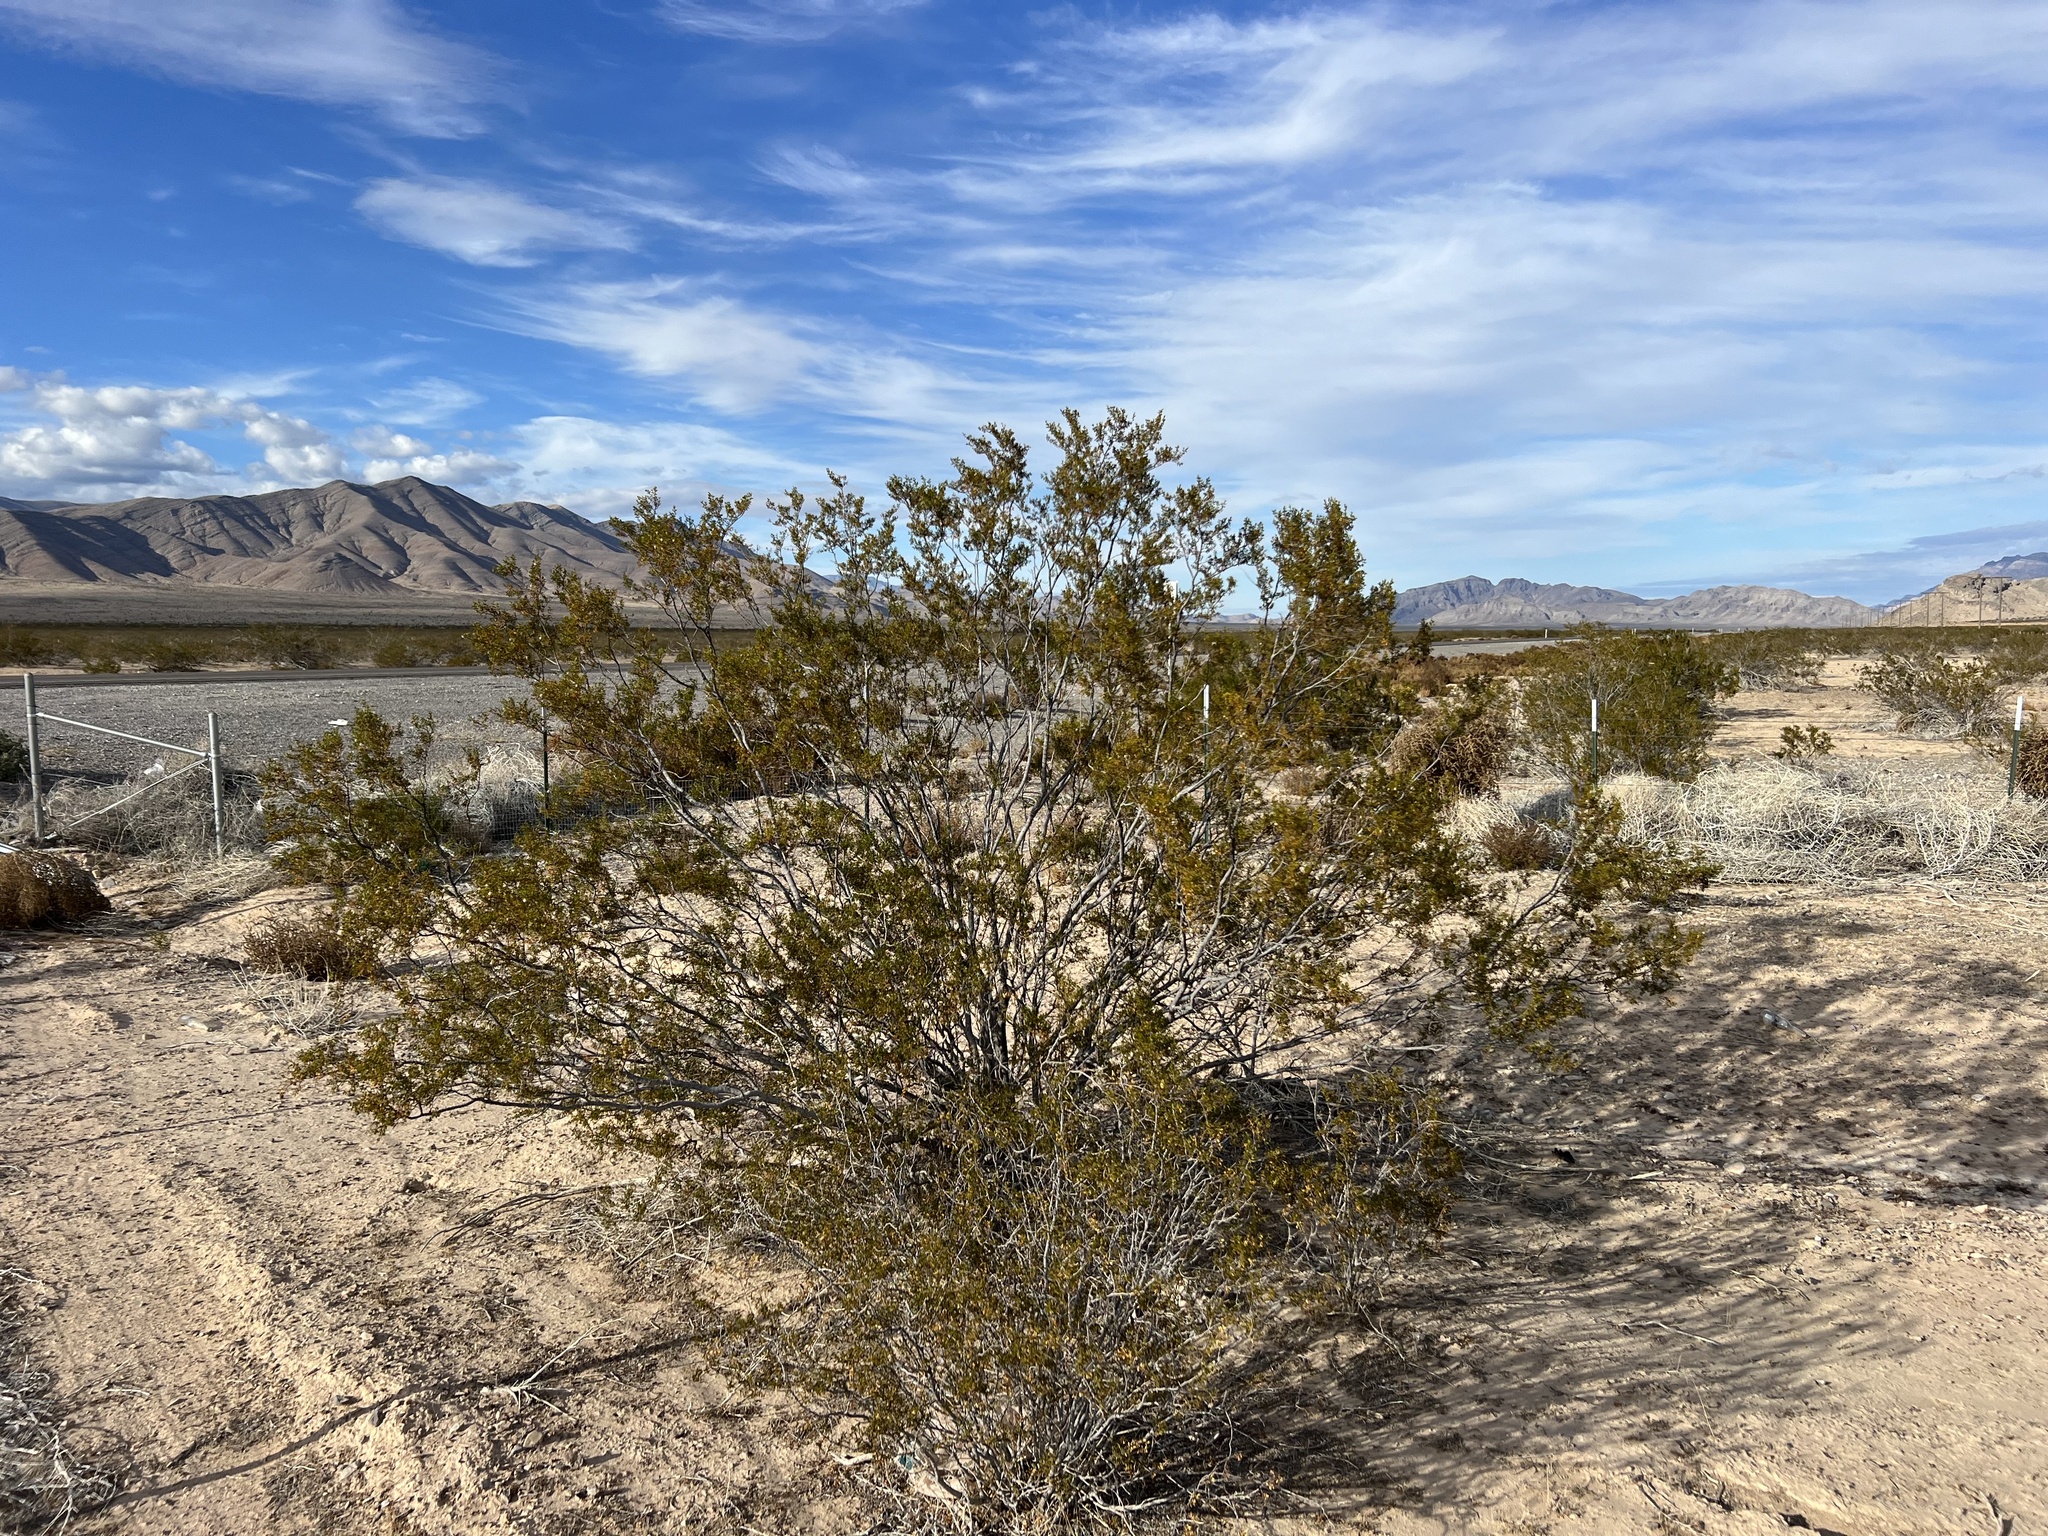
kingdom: Plantae
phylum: Tracheophyta
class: Magnoliopsida
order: Zygophyllales
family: Zygophyllaceae
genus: Larrea
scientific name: Larrea tridentata
